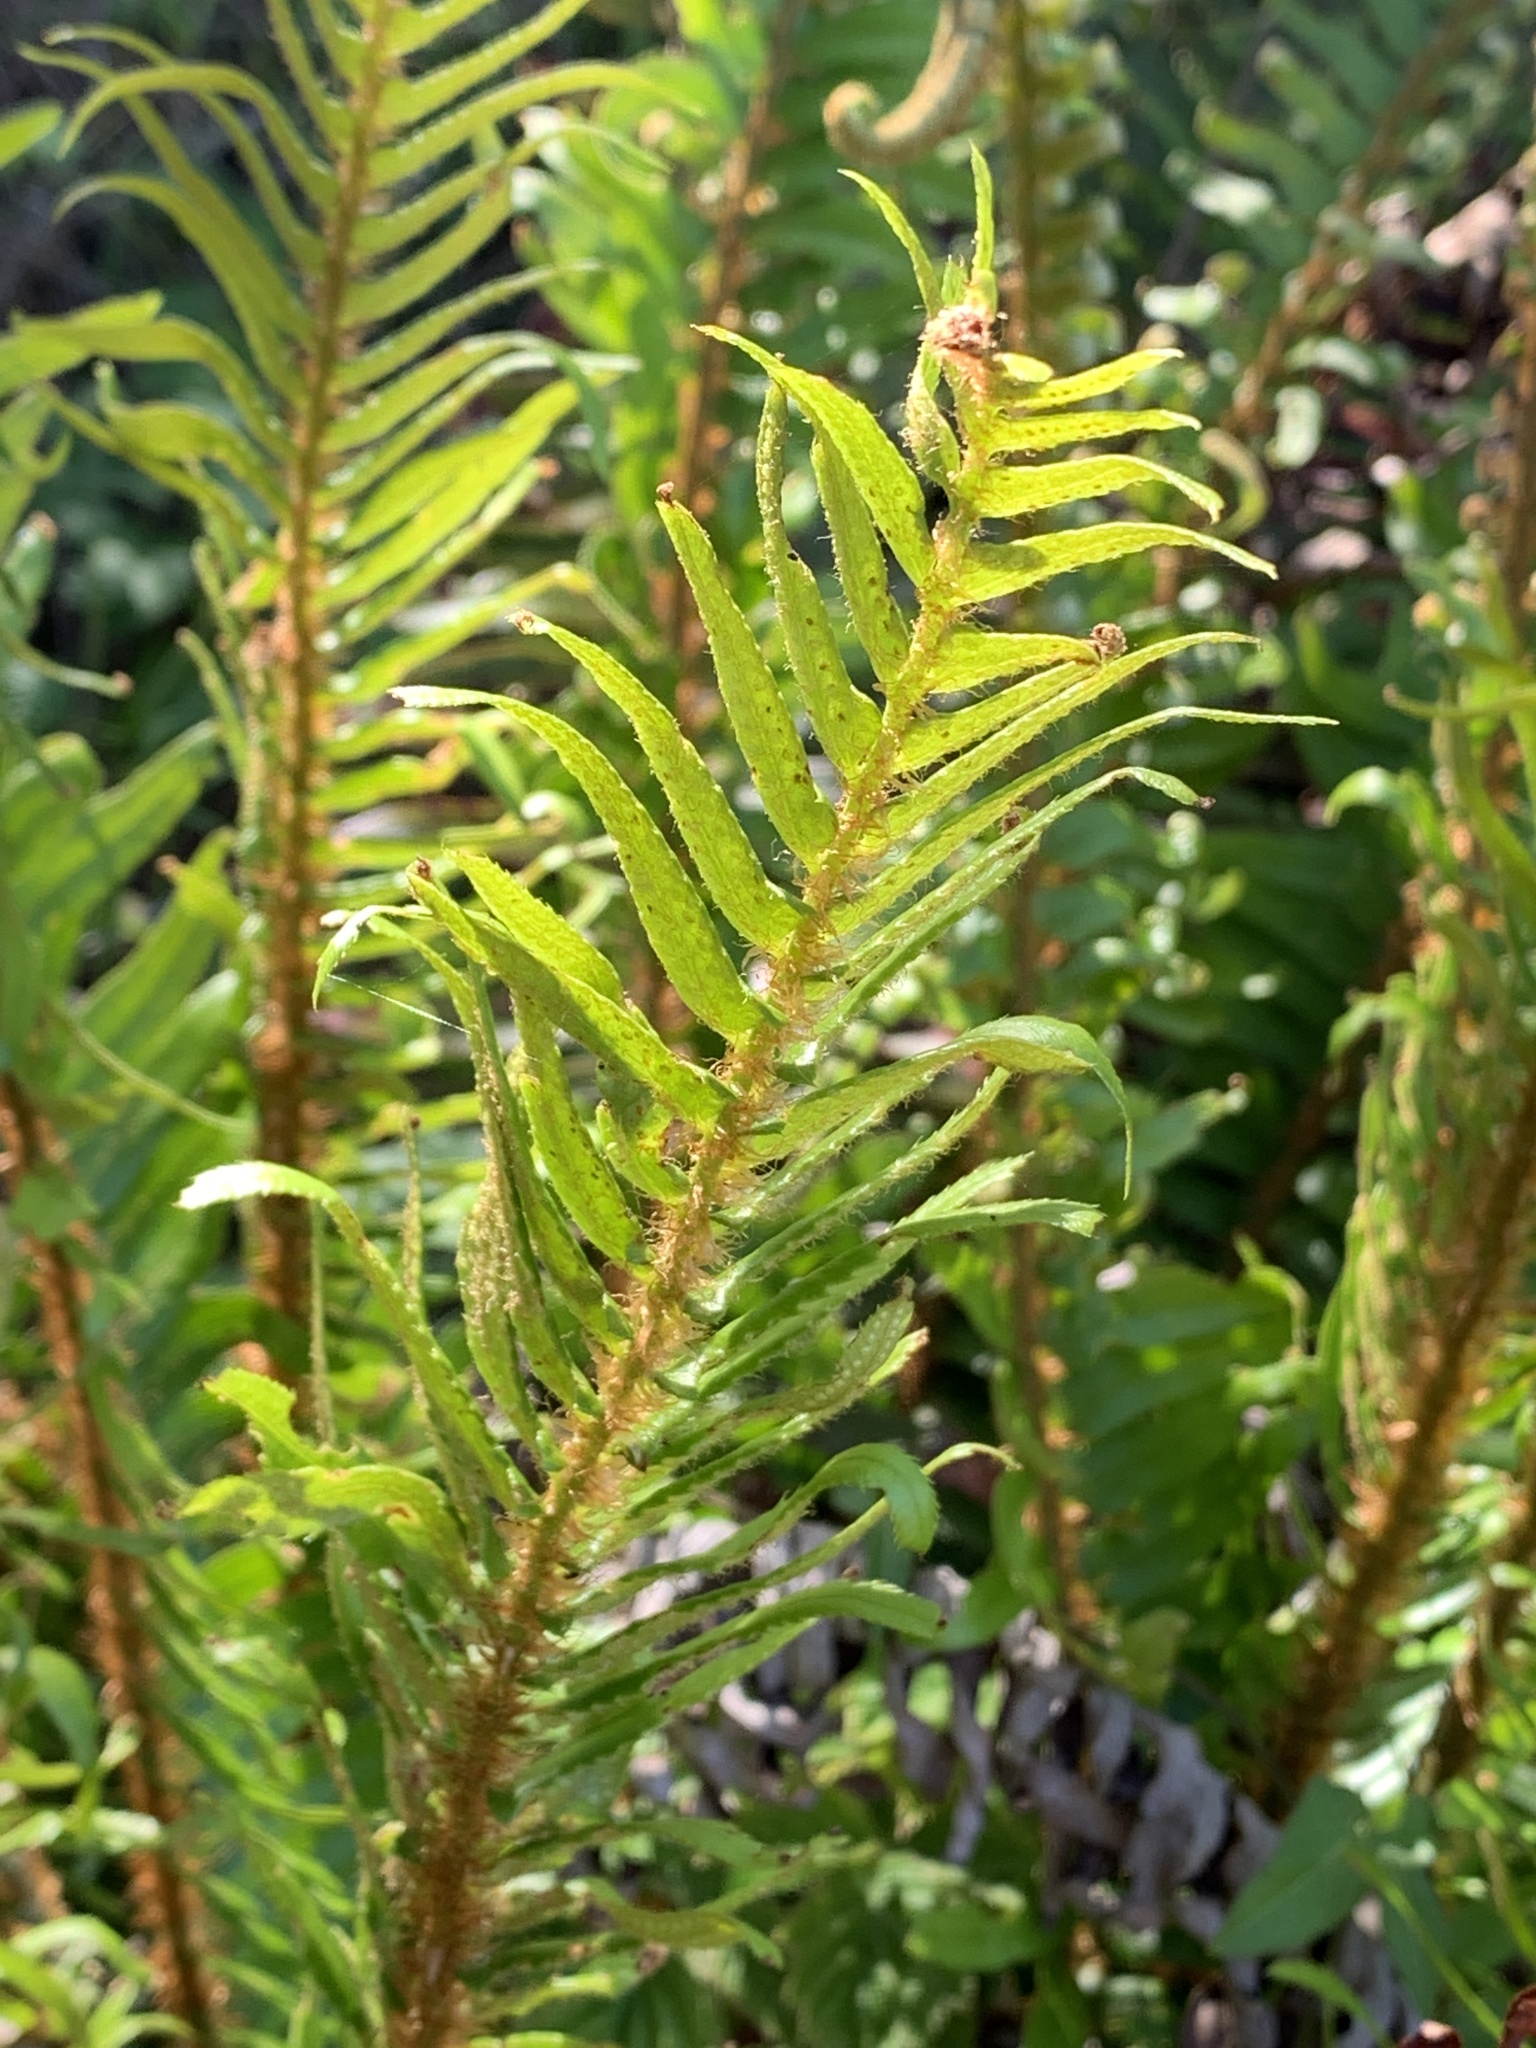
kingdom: Plantae
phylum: Tracheophyta
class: Polypodiopsida
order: Polypodiales
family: Dryopteridaceae
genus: Polystichum
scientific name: Polystichum munitum
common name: Western sword-fern
